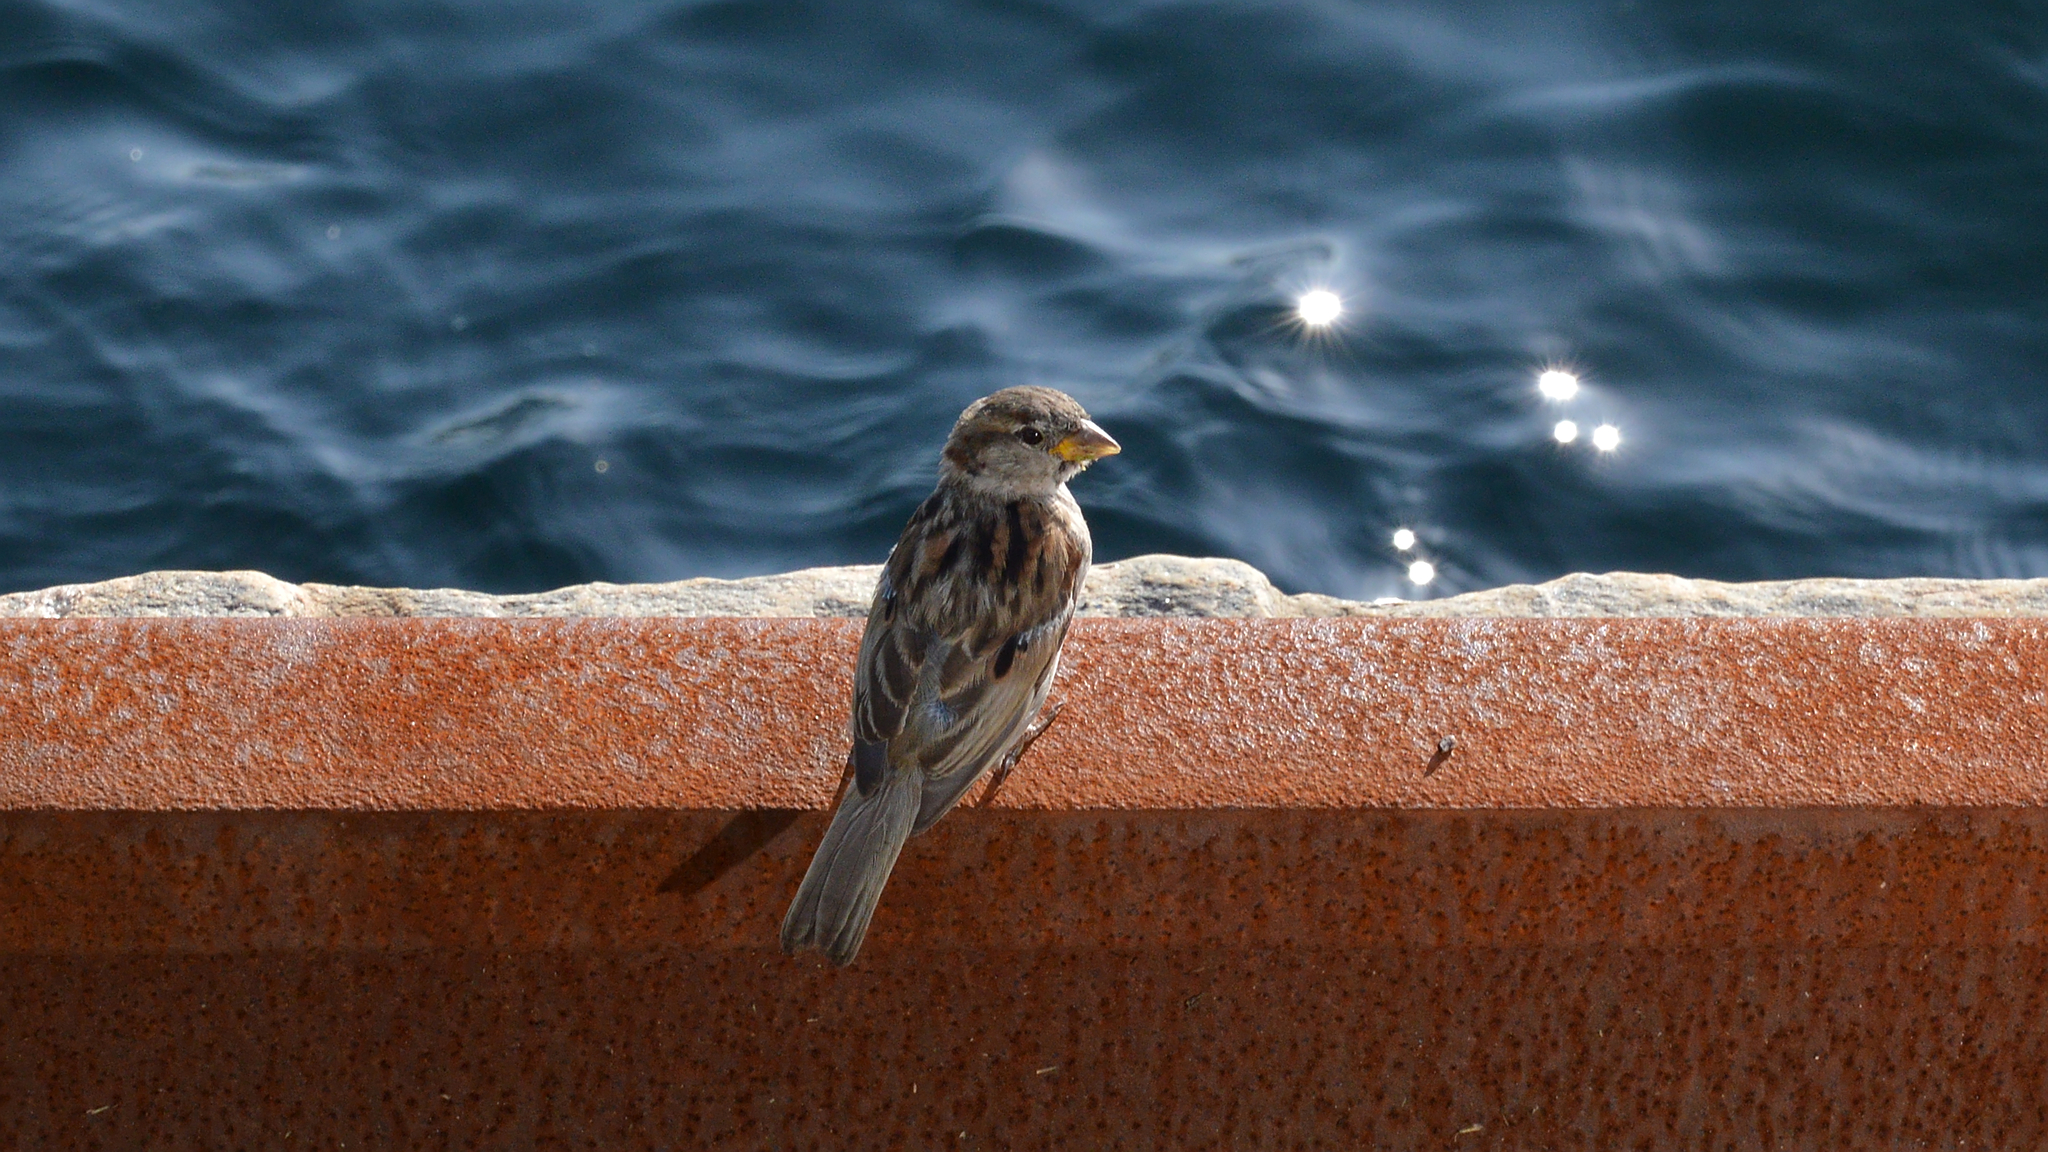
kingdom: Animalia
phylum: Chordata
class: Aves
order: Passeriformes
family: Passeridae
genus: Passer
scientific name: Passer domesticus
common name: House sparrow
